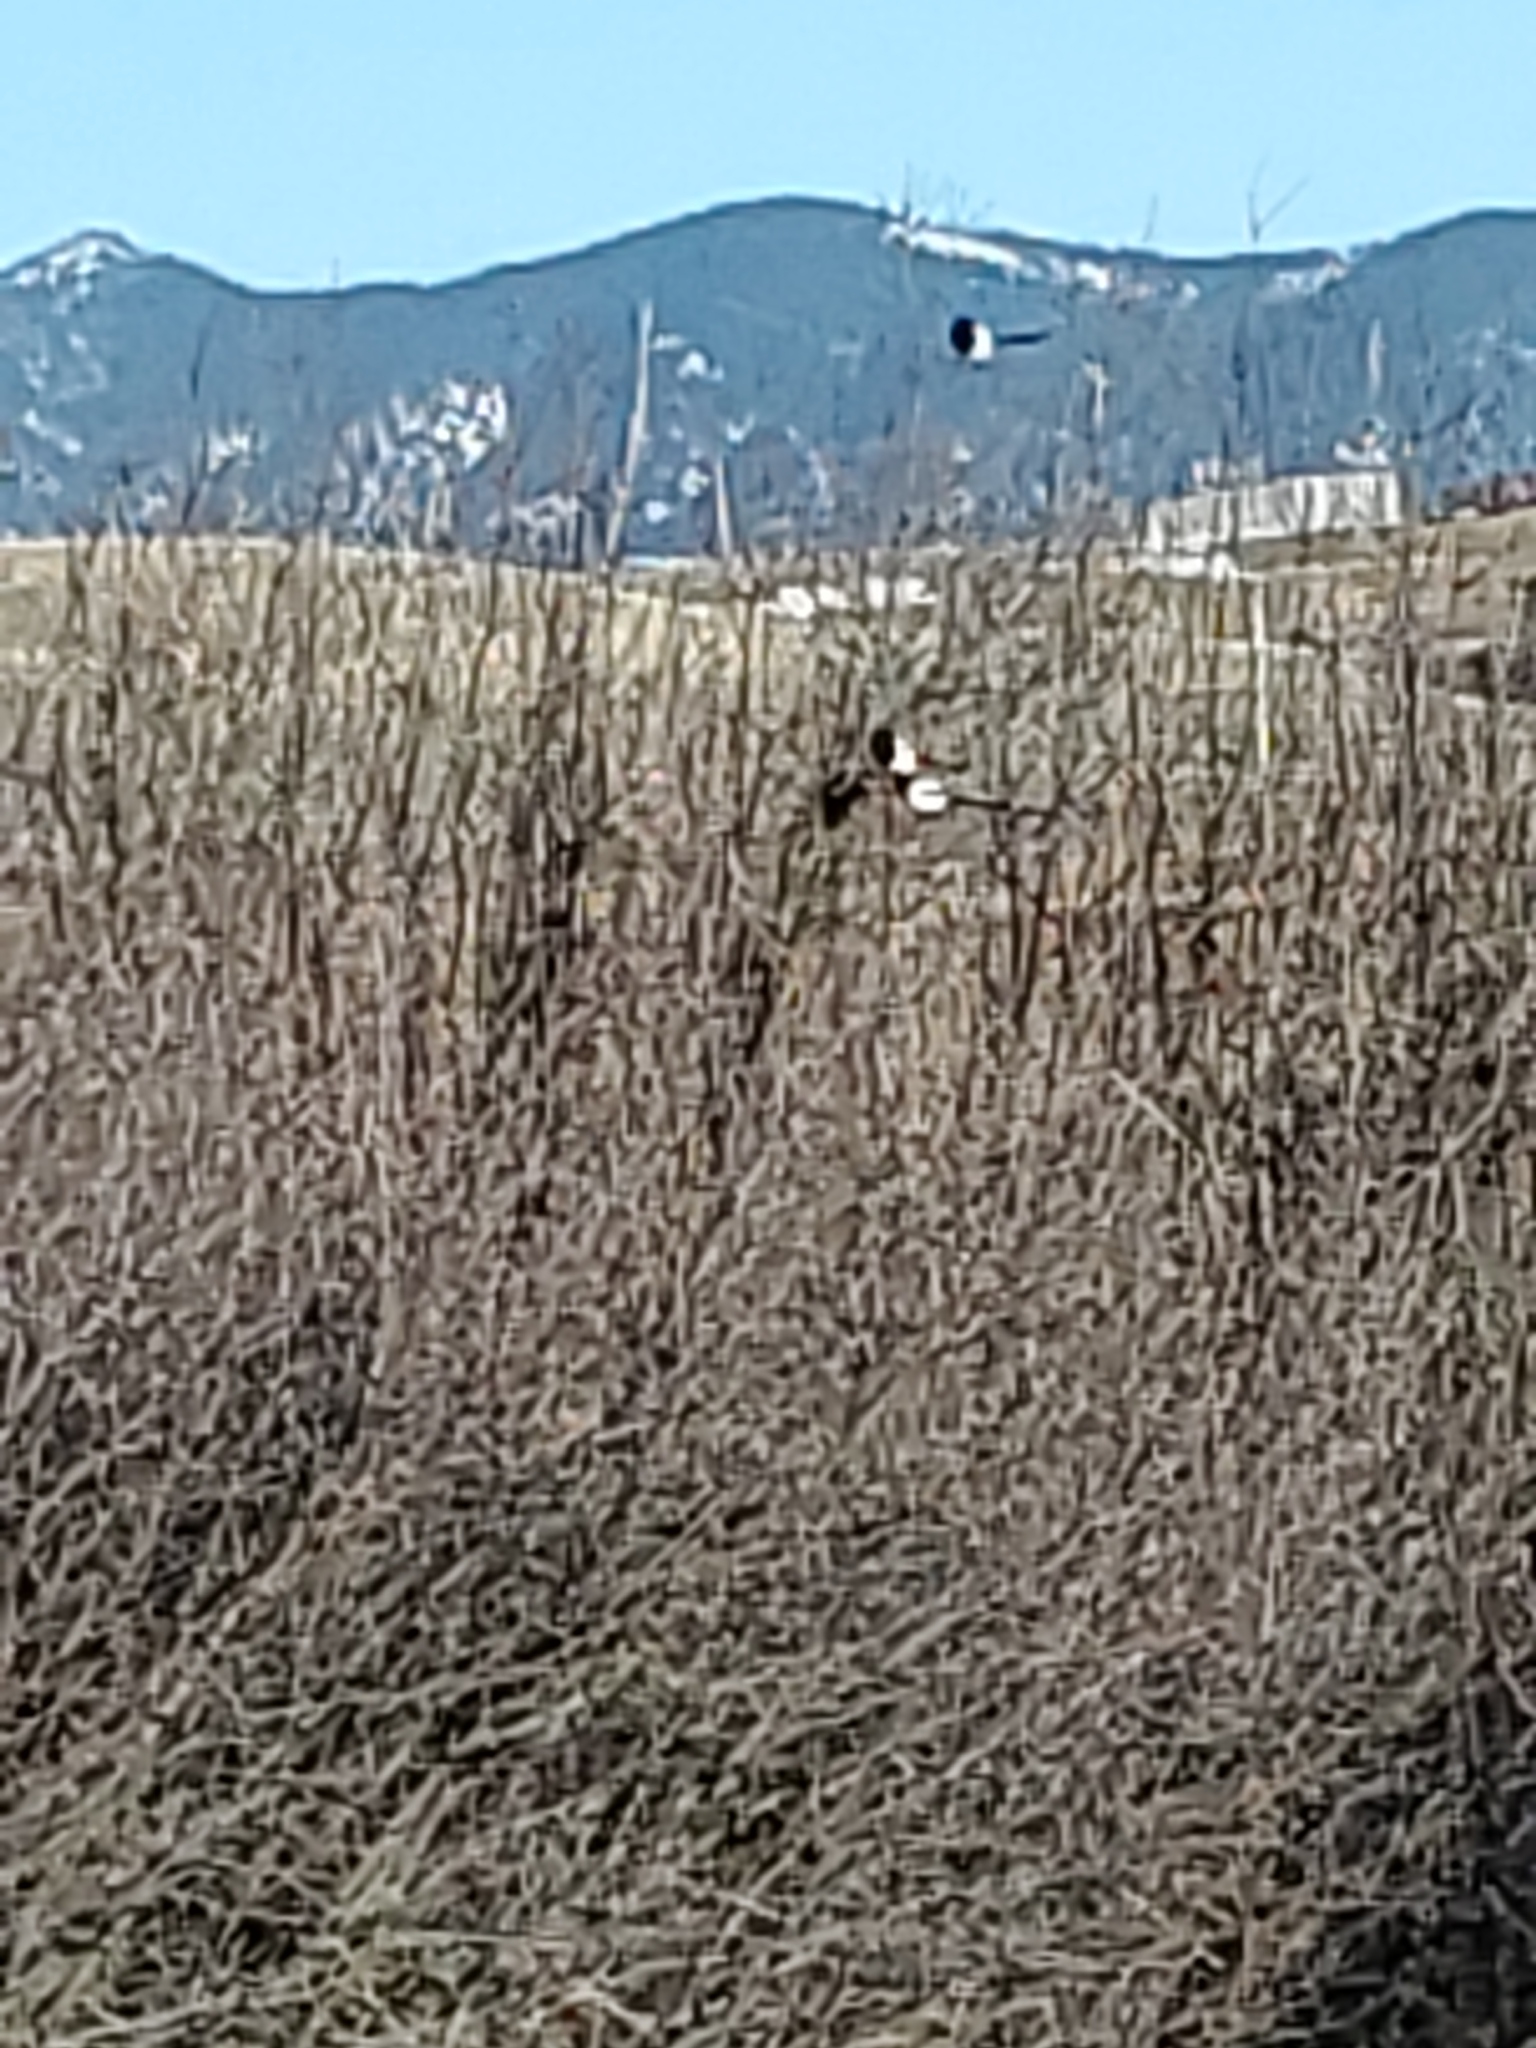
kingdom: Animalia
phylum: Chordata
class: Aves
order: Passeriformes
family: Corvidae
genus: Pica
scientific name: Pica hudsonia
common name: Black-billed magpie
